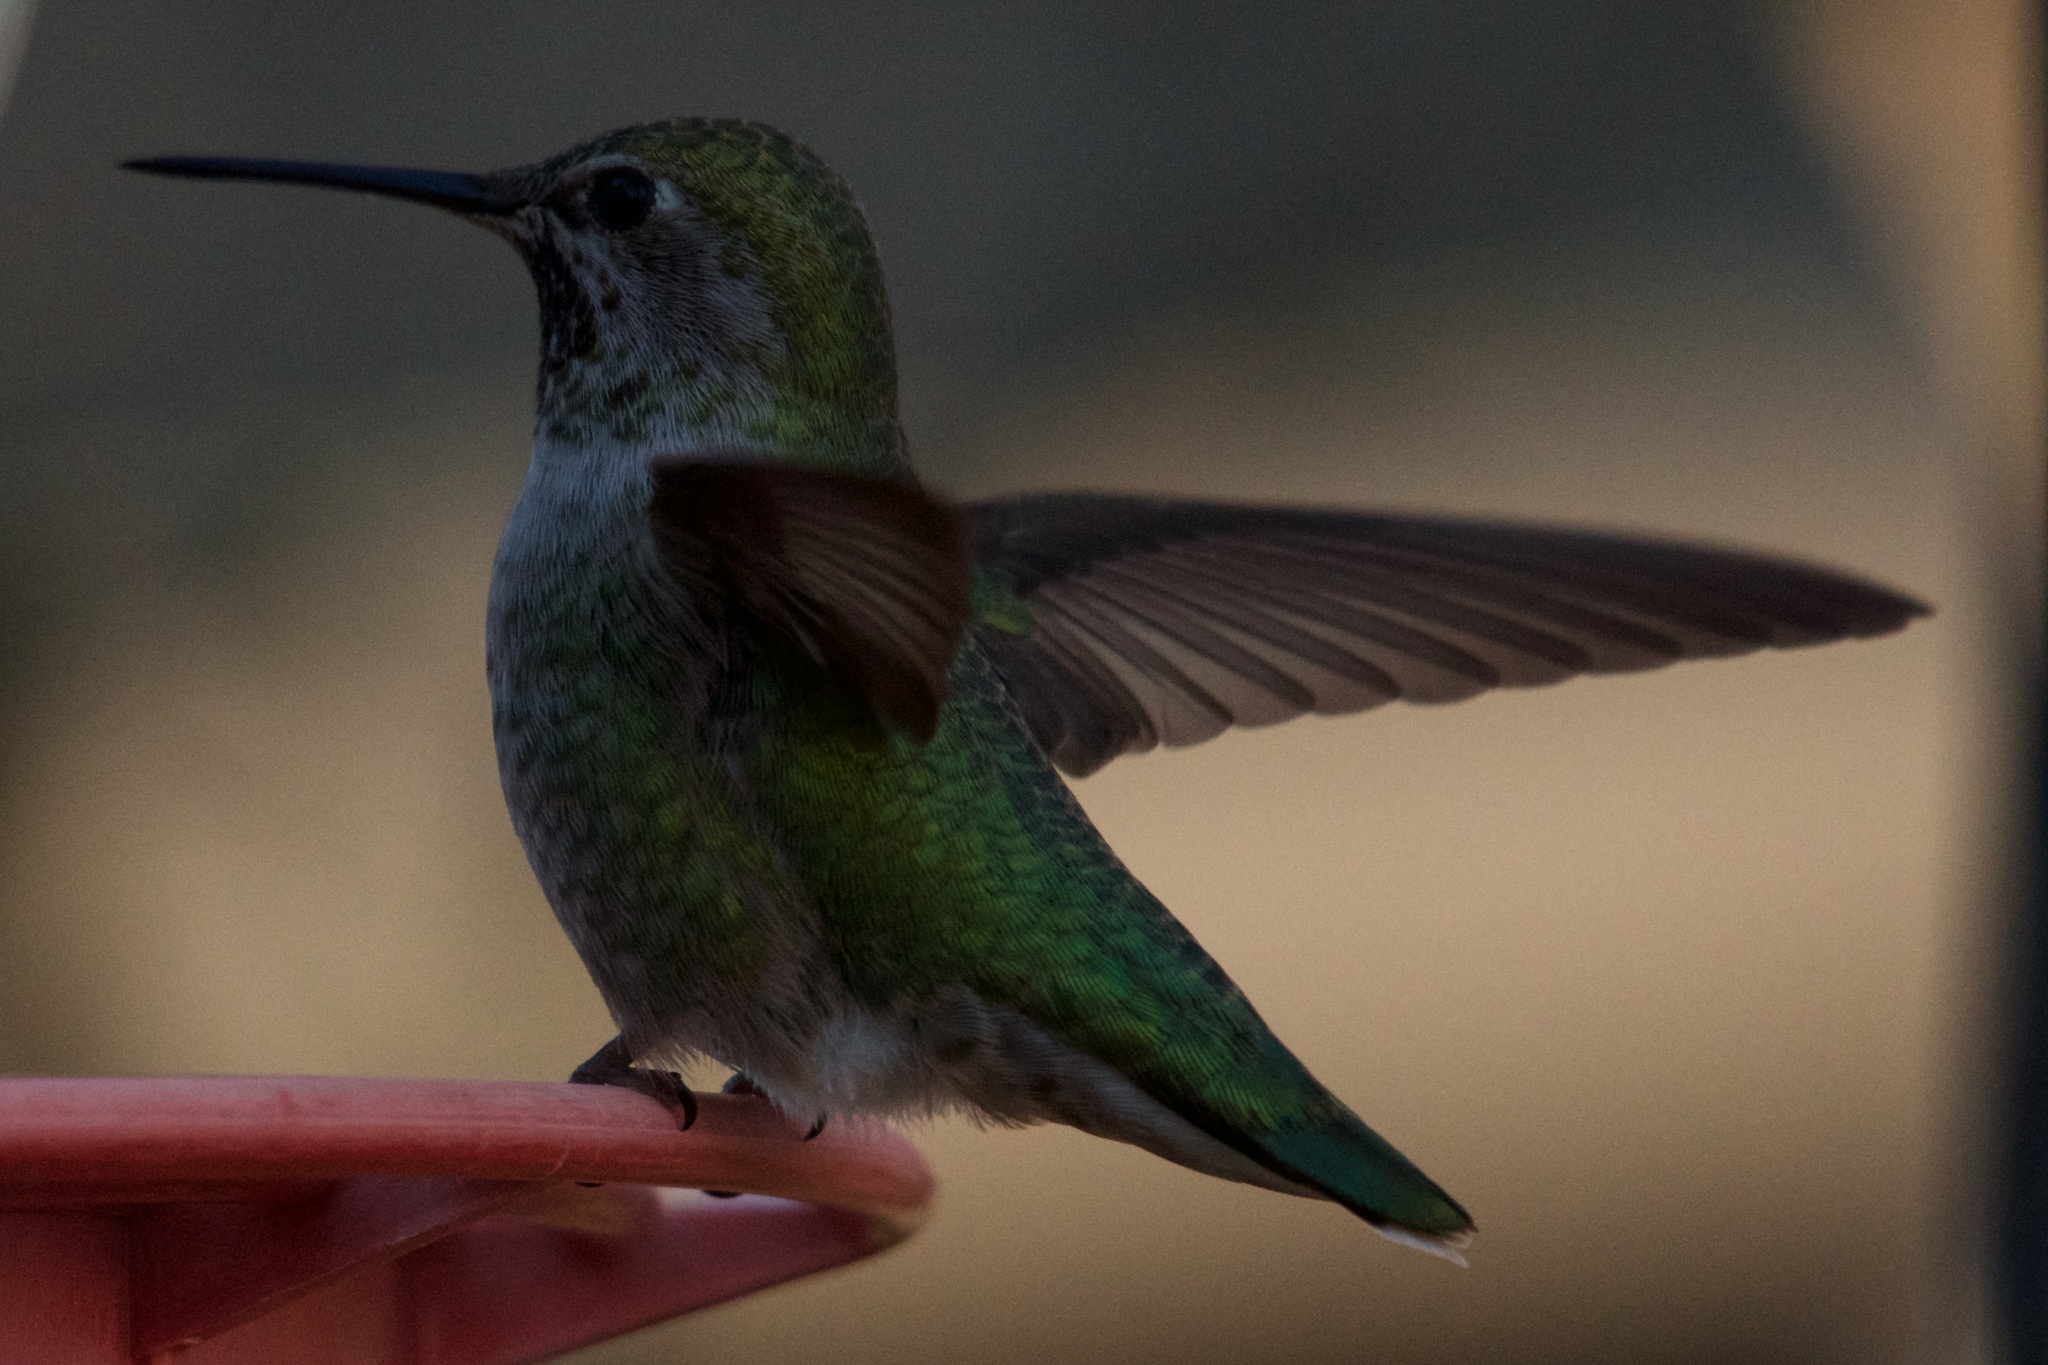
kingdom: Animalia
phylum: Chordata
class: Aves
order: Apodiformes
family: Trochilidae
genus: Calypte
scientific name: Calypte anna
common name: Anna's hummingbird
